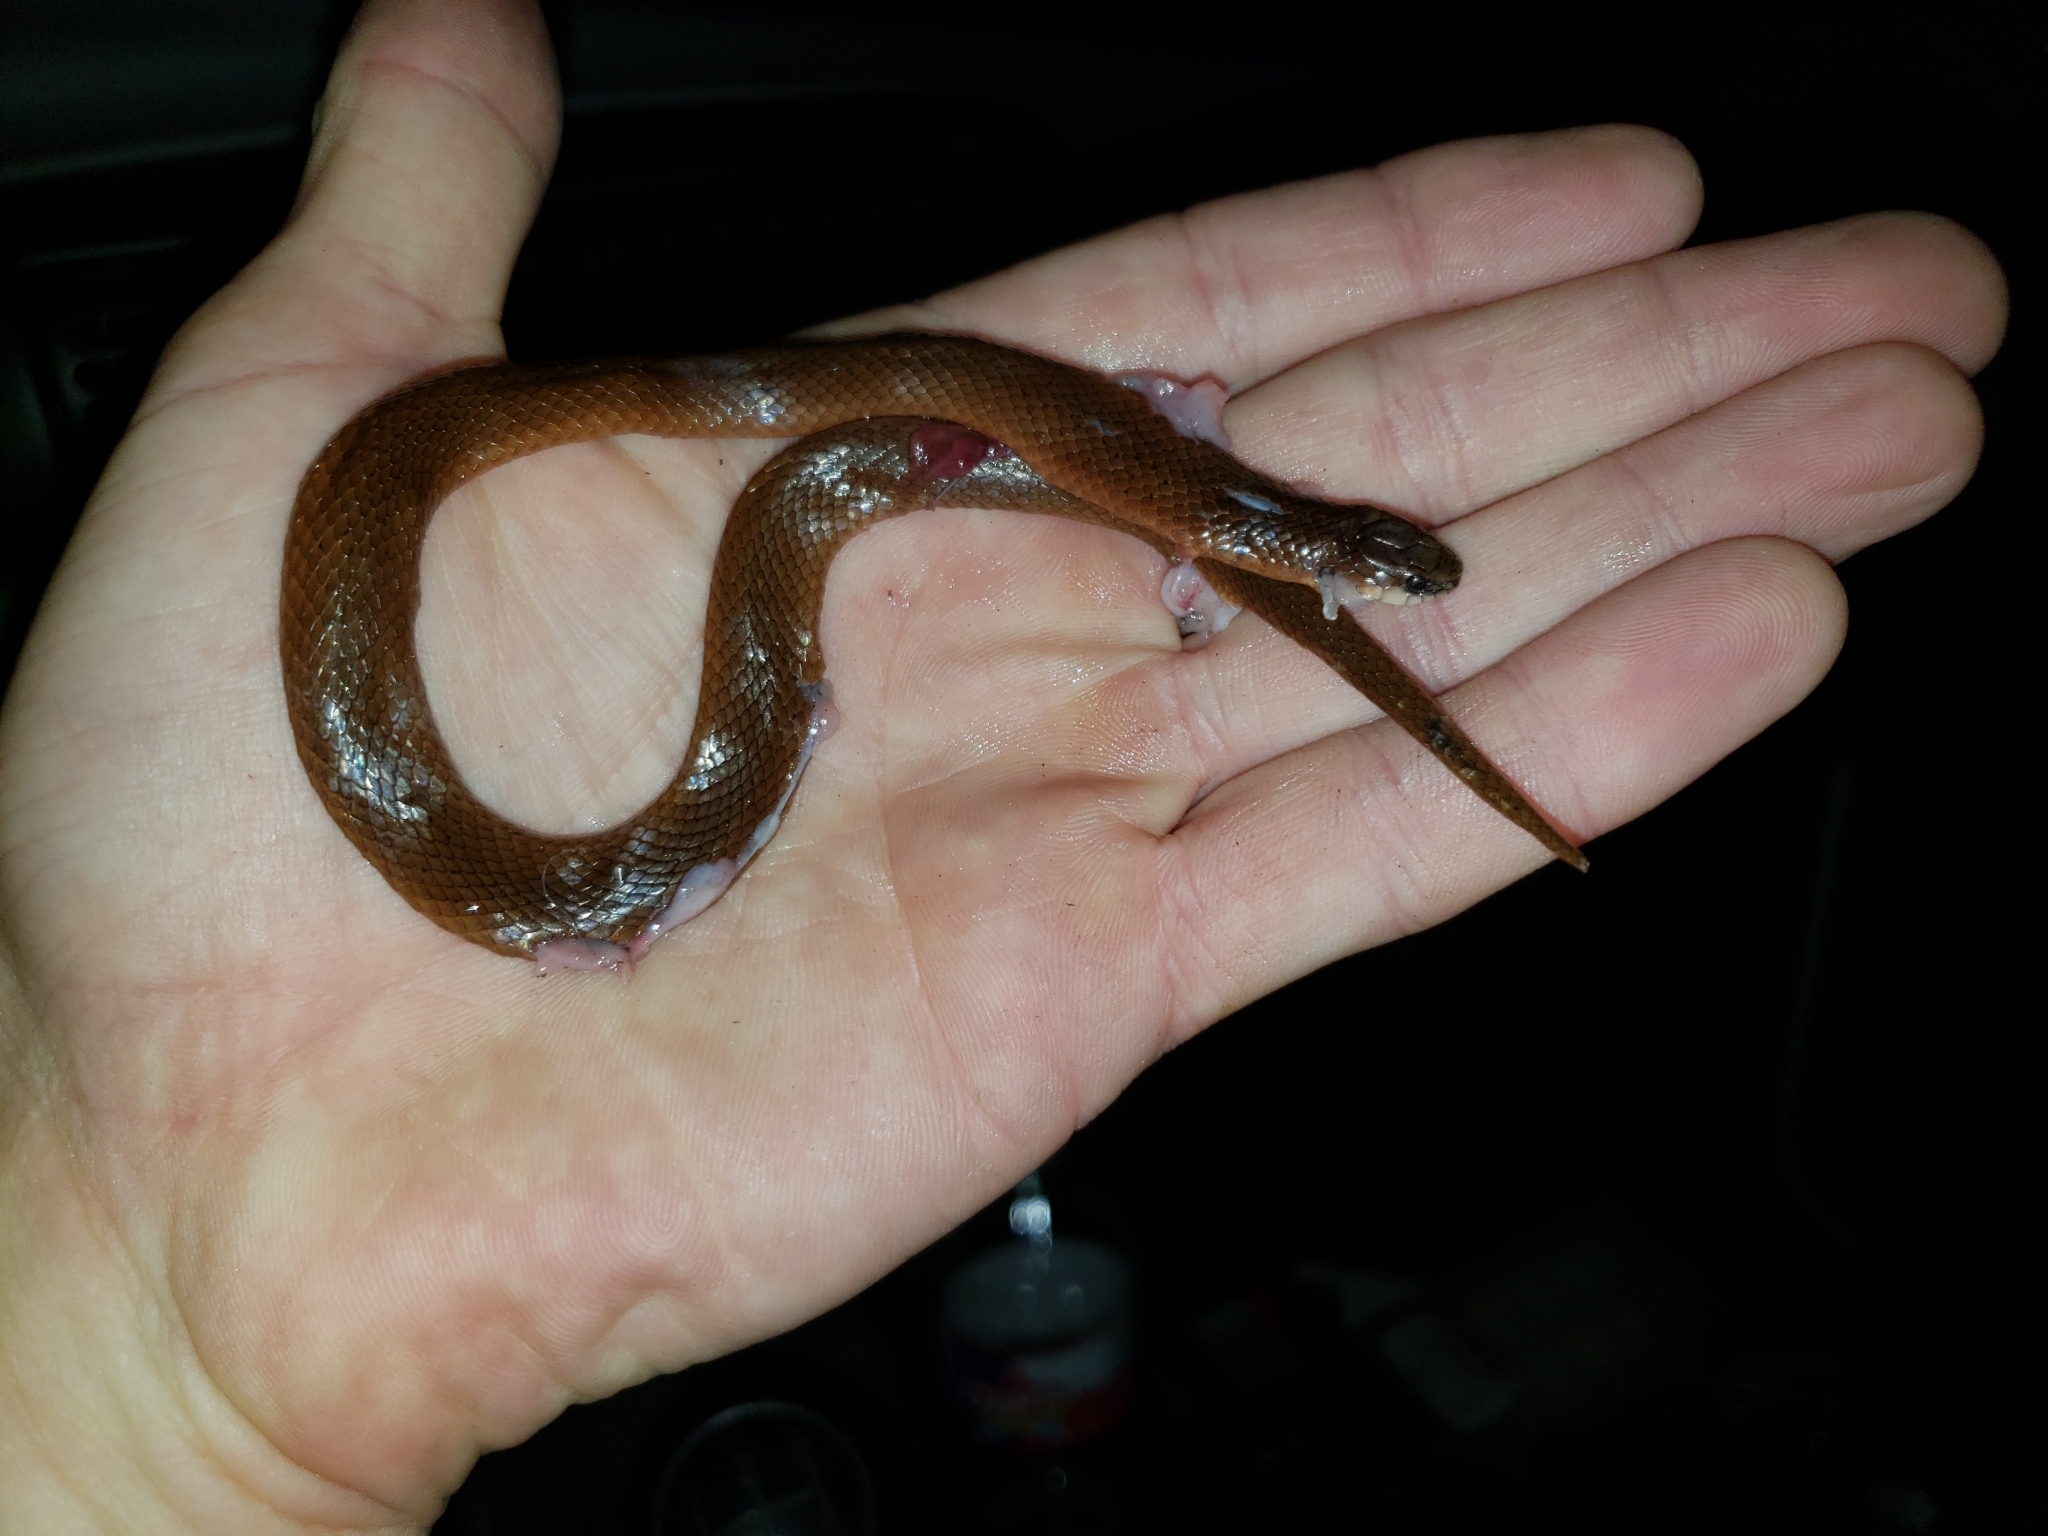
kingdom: Animalia
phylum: Chordata
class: Squamata
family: Colubridae
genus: Virginia
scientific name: Virginia valeriae
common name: Smooth earth snake
